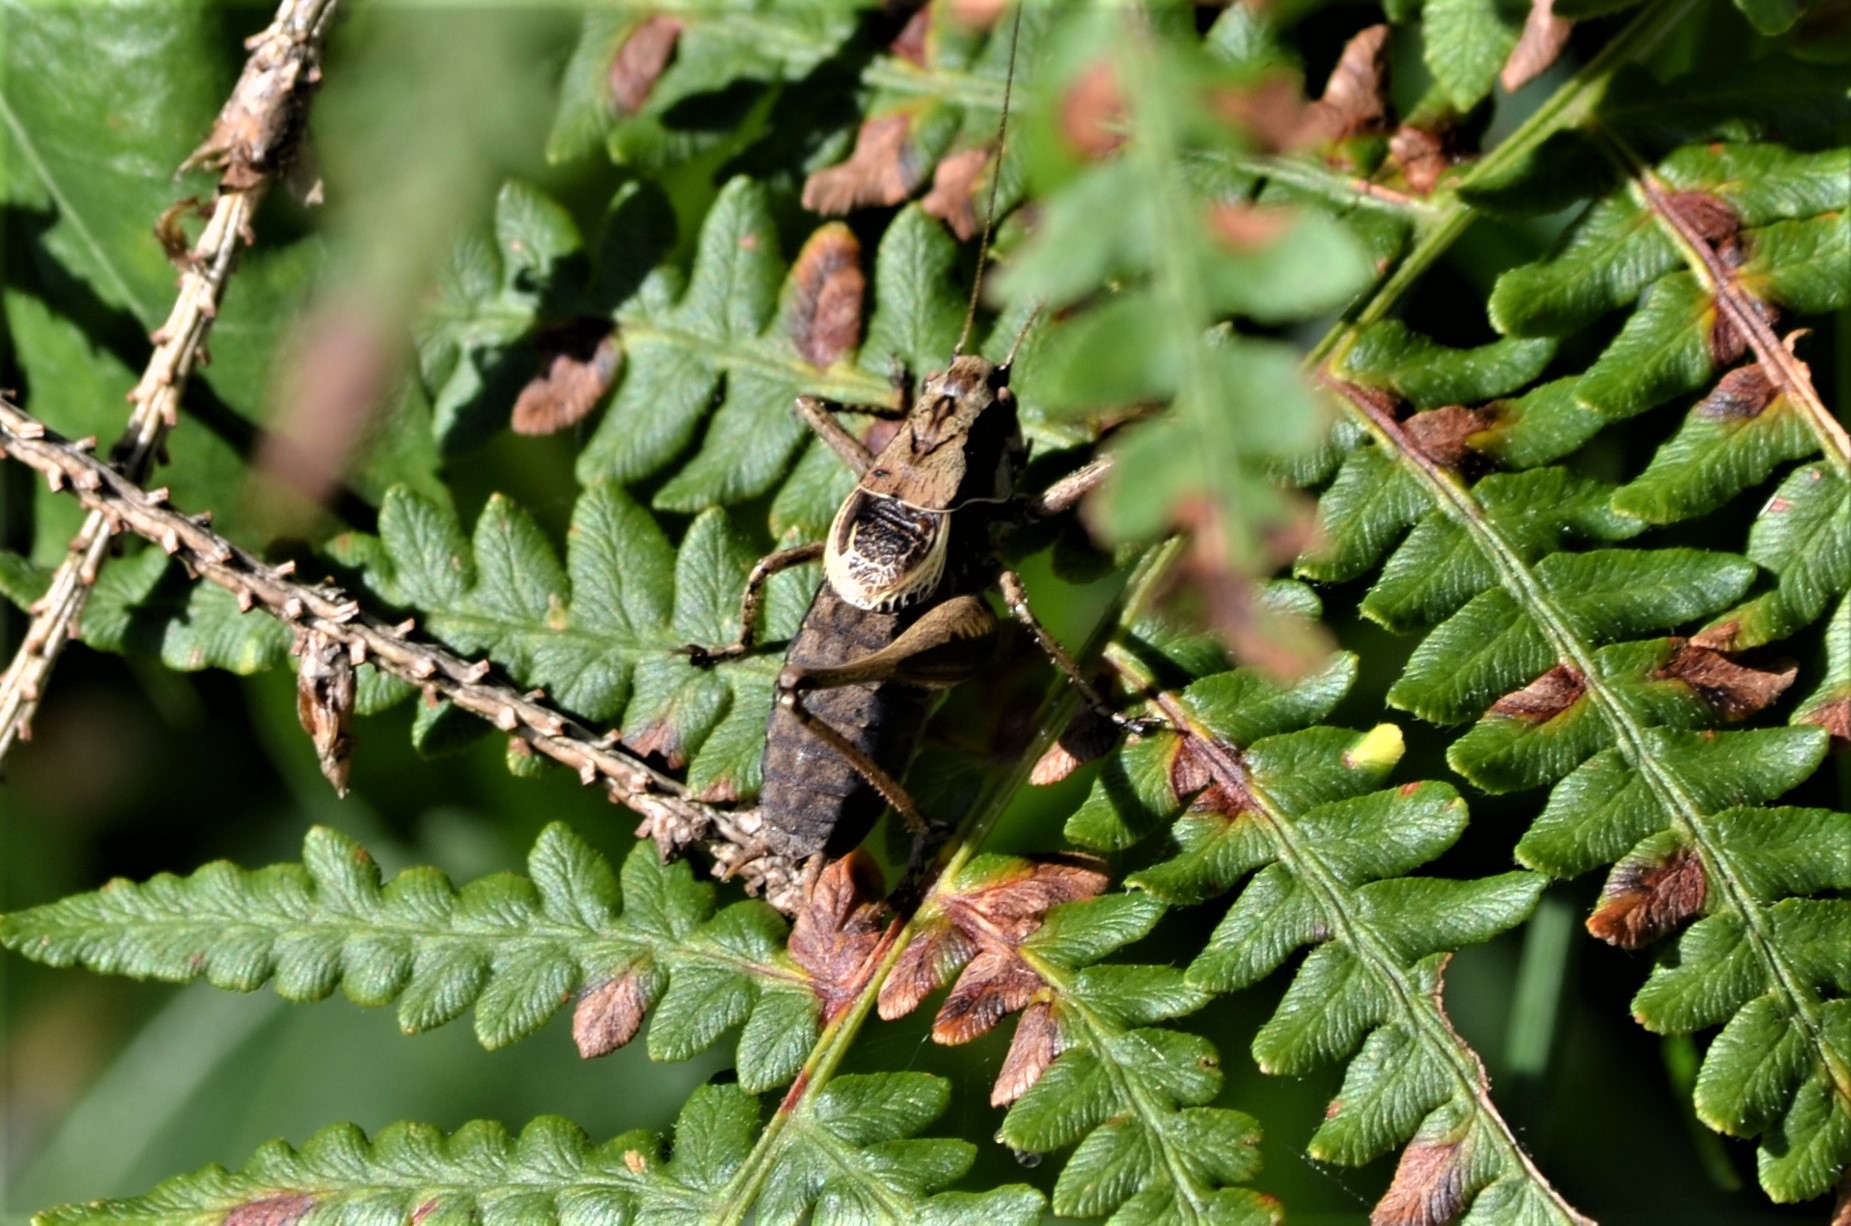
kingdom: Animalia
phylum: Arthropoda
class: Insecta
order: Orthoptera
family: Tettigoniidae
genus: Pholidoptera
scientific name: Pholidoptera griseoaptera
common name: Dark bush-cricket
